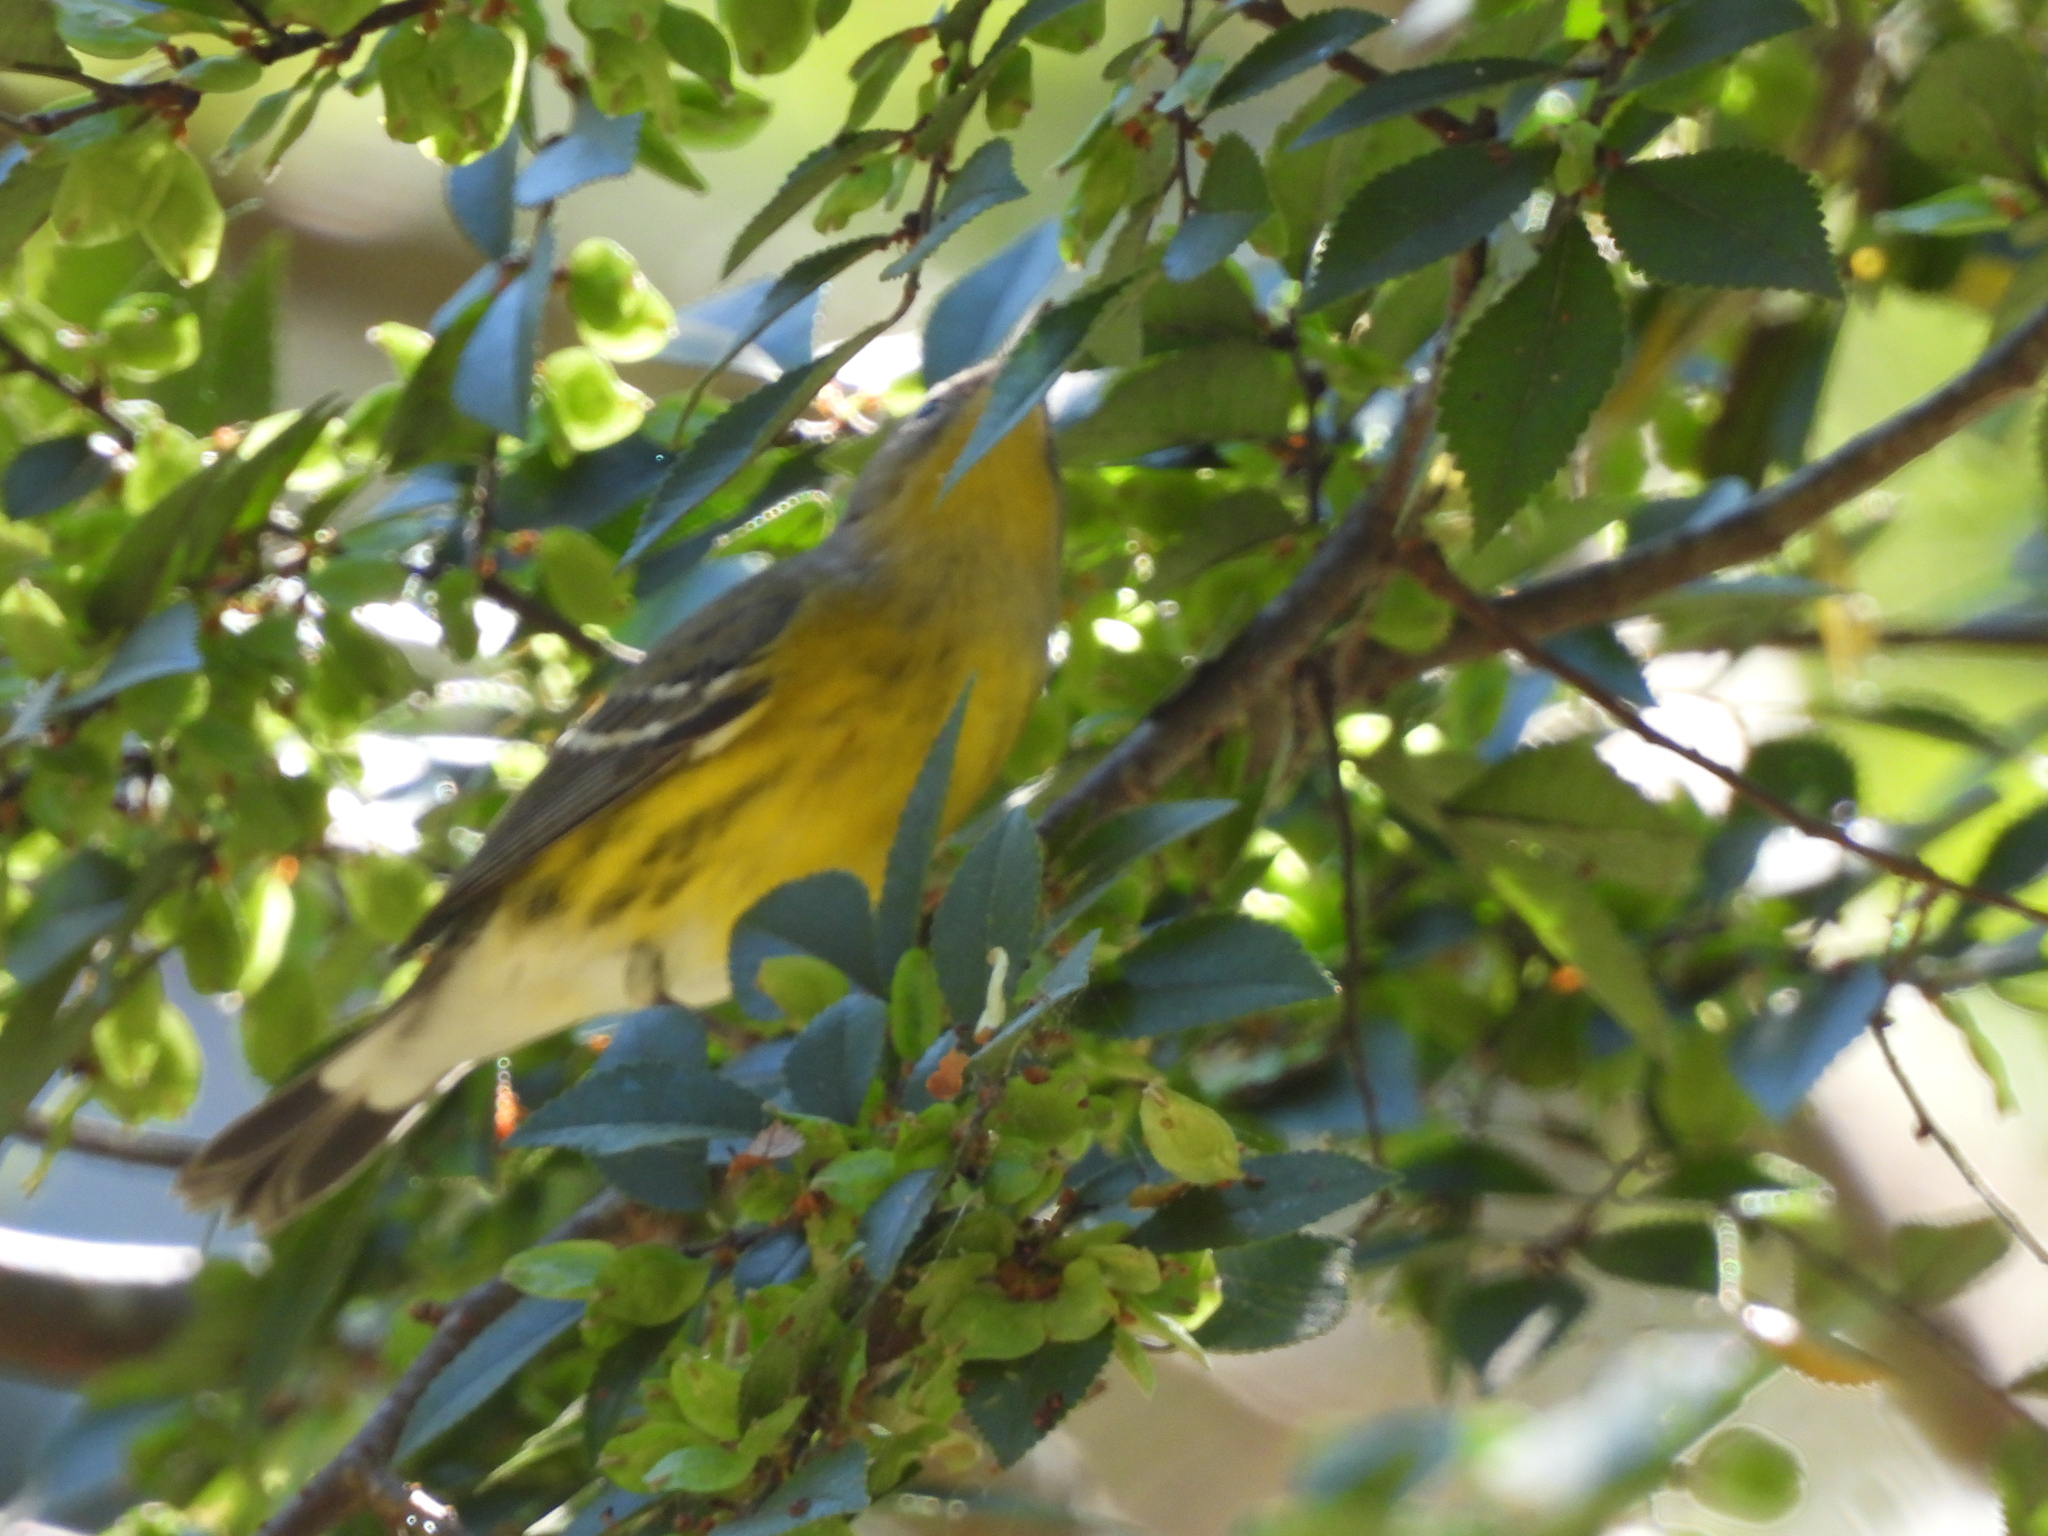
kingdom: Animalia
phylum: Chordata
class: Aves
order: Passeriformes
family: Parulidae
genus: Setophaga
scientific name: Setophaga magnolia
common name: Magnolia warbler
